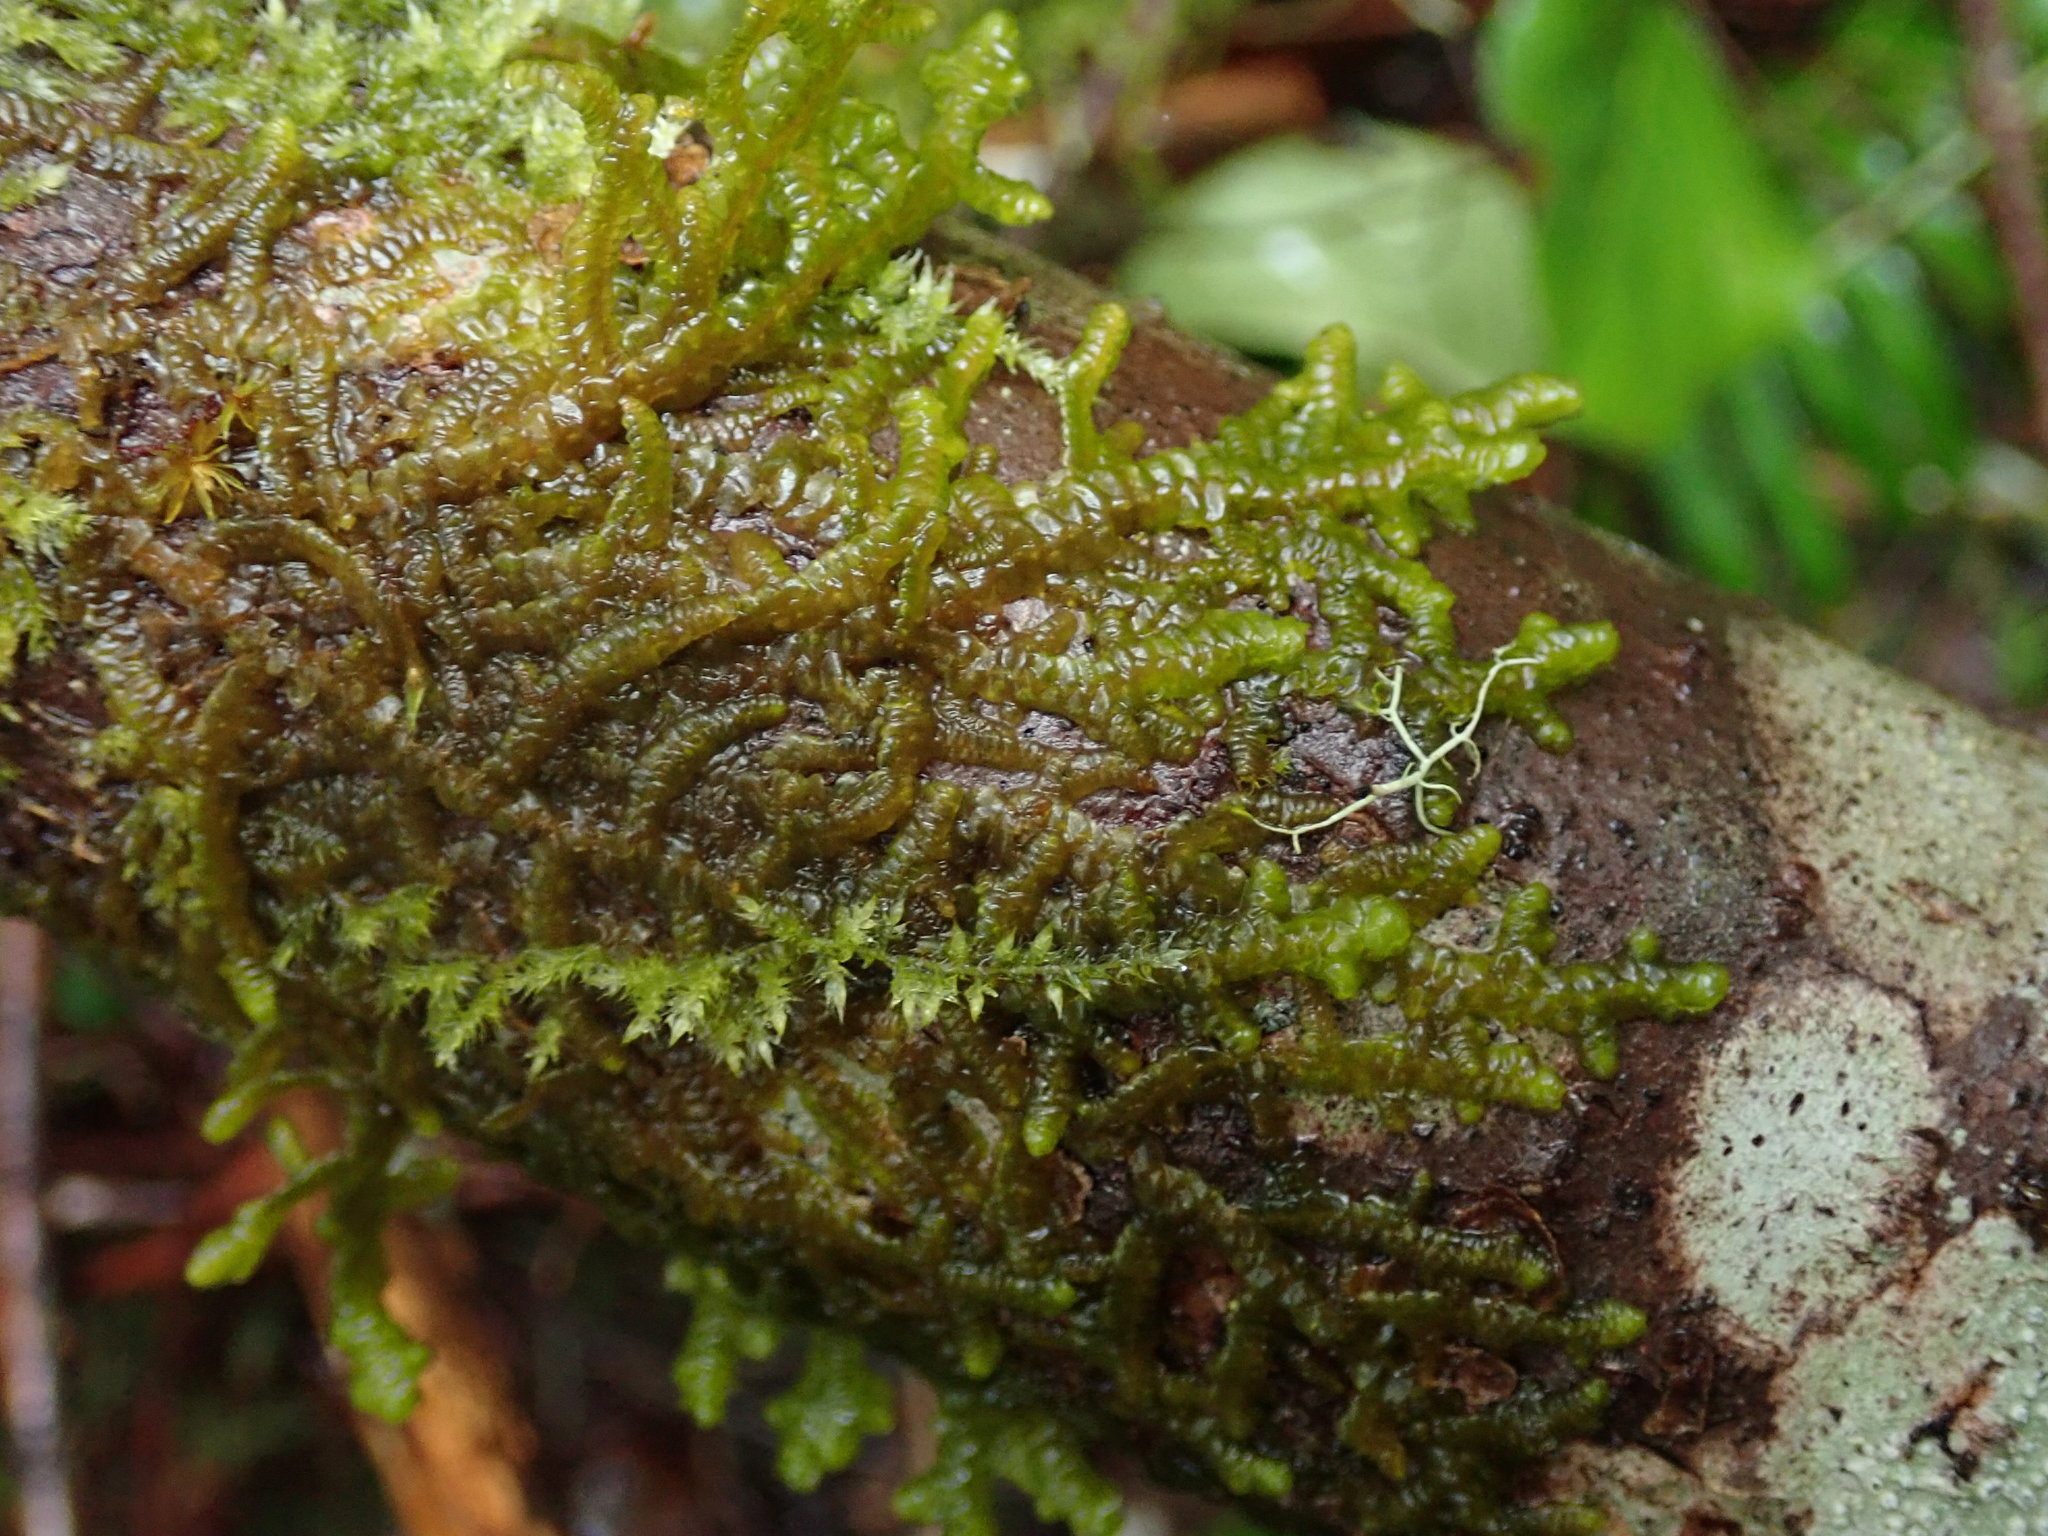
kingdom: Plantae
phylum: Marchantiophyta
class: Jungermanniopsida
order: Porellales
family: Porellaceae
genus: Porella
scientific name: Porella navicularis
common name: Tree ruffle liverwort
